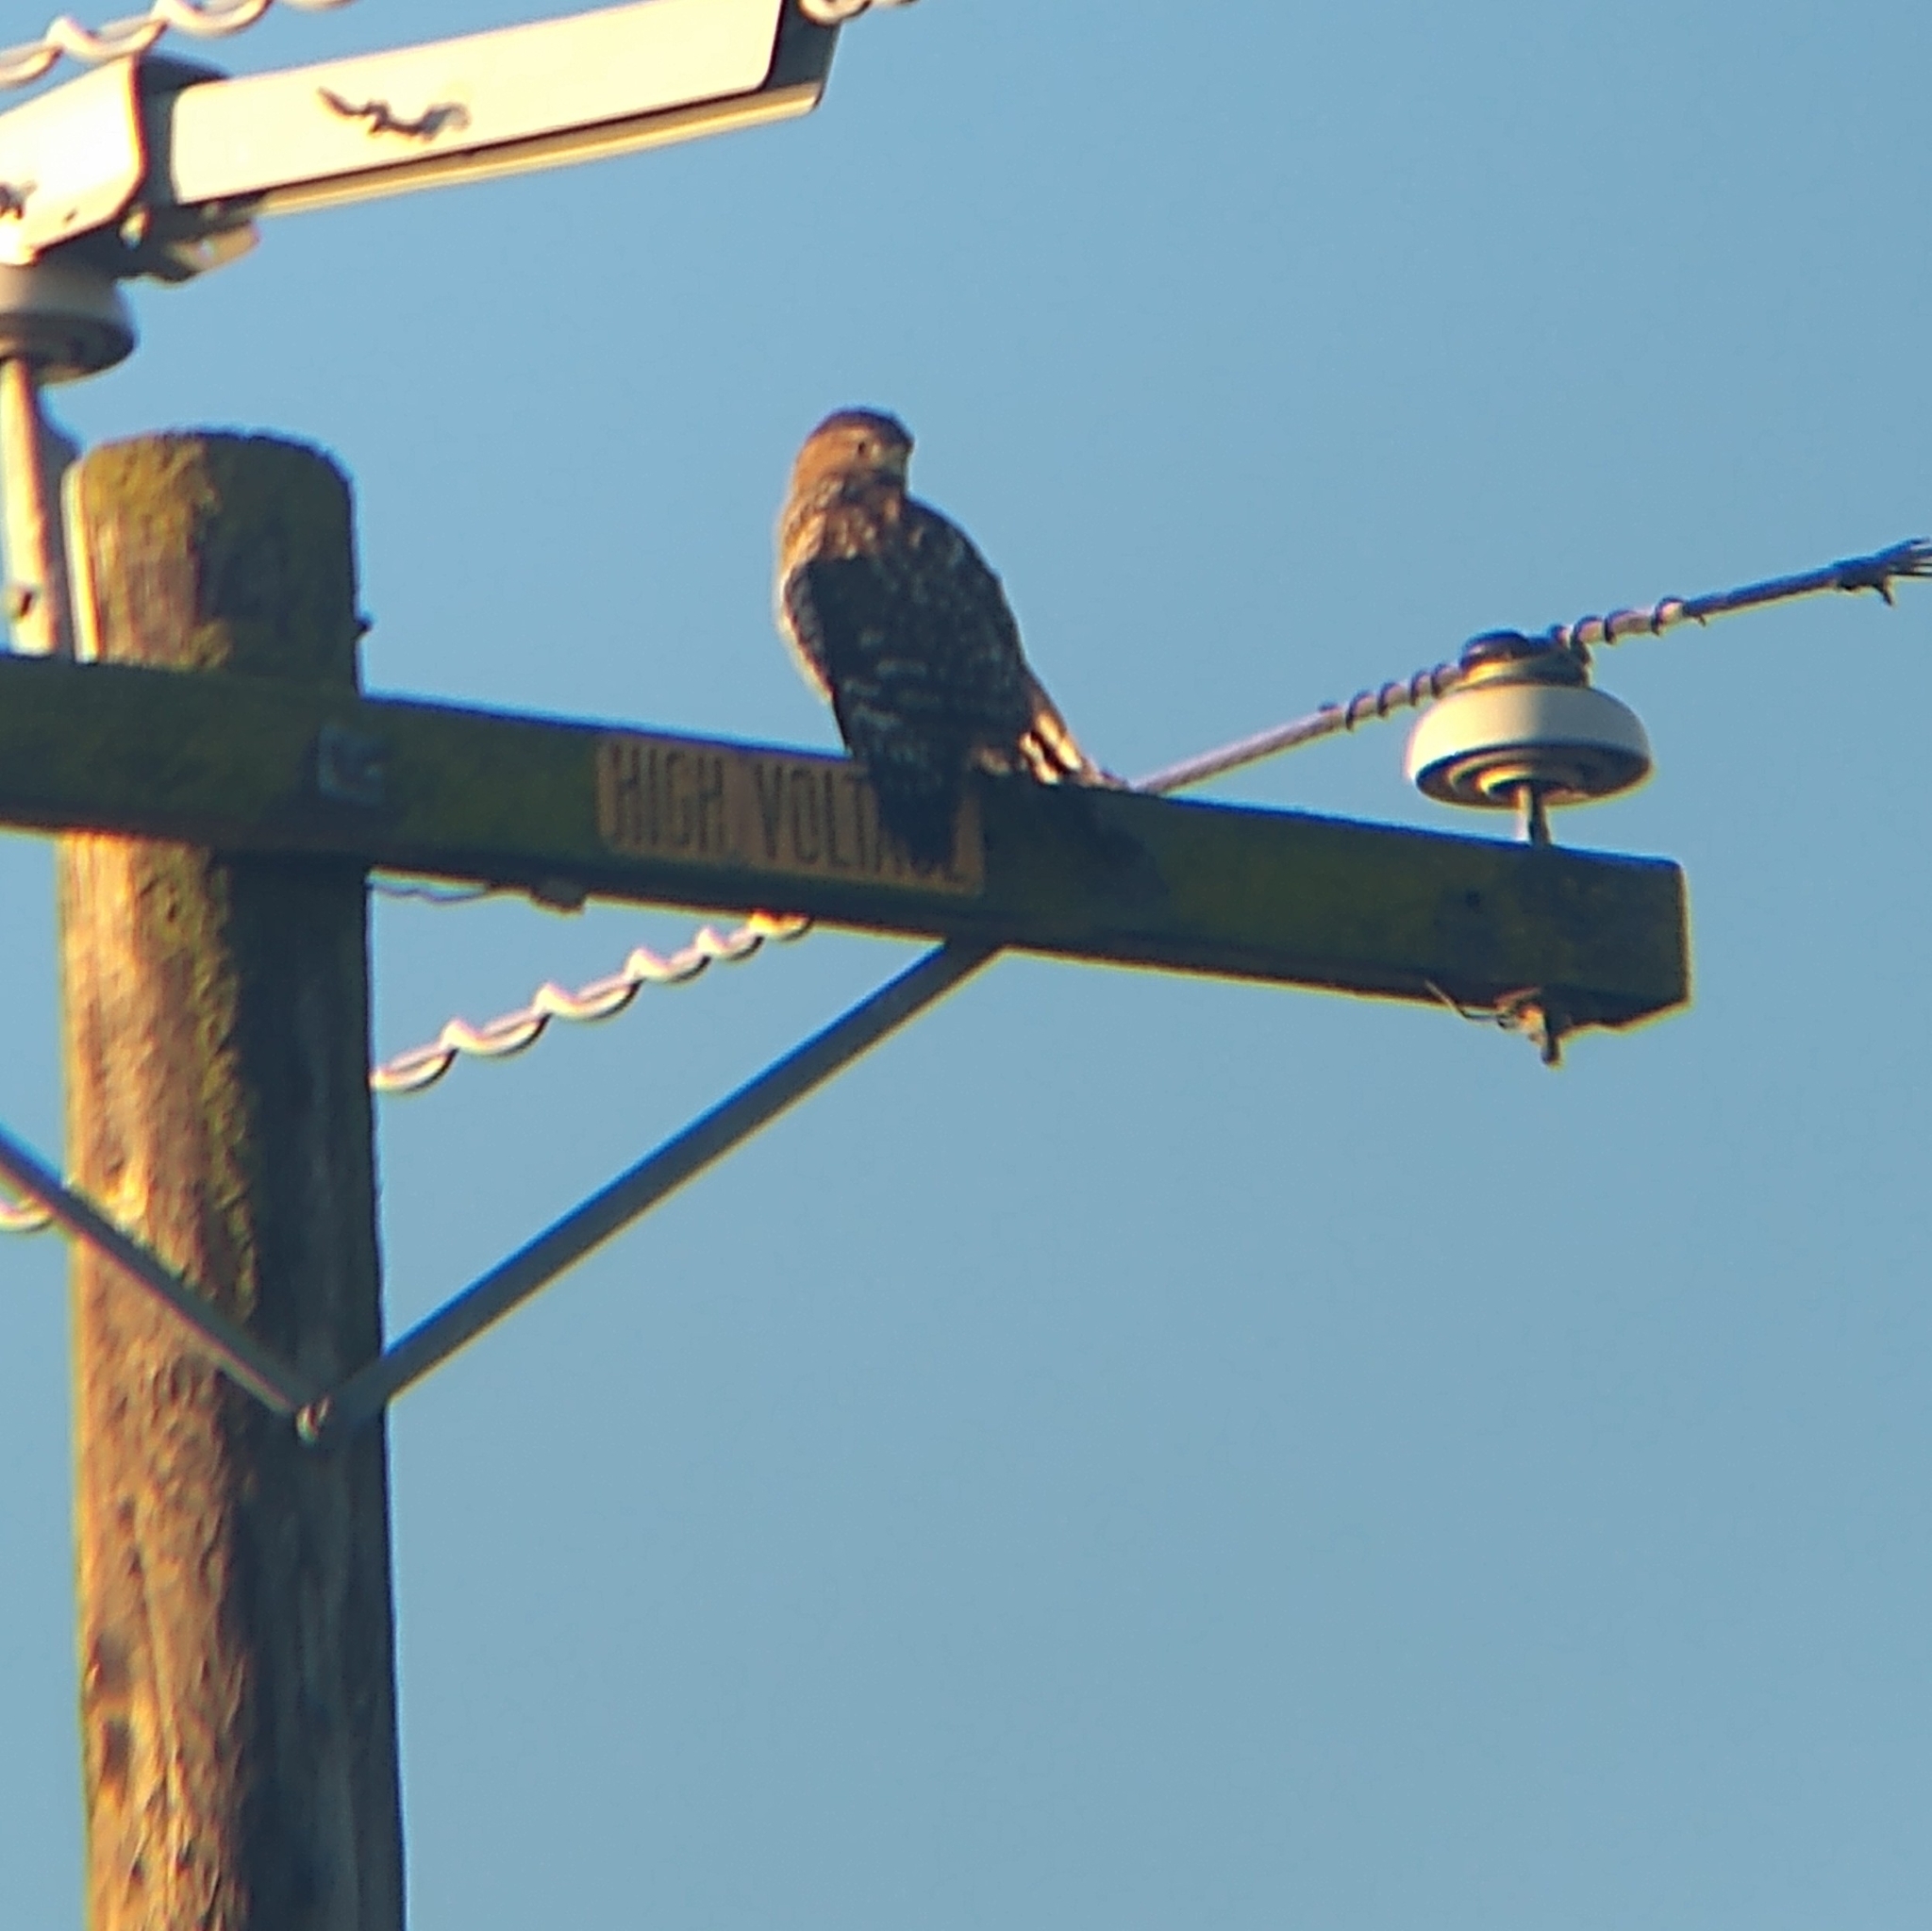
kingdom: Animalia
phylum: Chordata
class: Aves
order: Accipitriformes
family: Accipitridae
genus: Buteo
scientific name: Buteo lineatus
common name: Red-shouldered hawk
